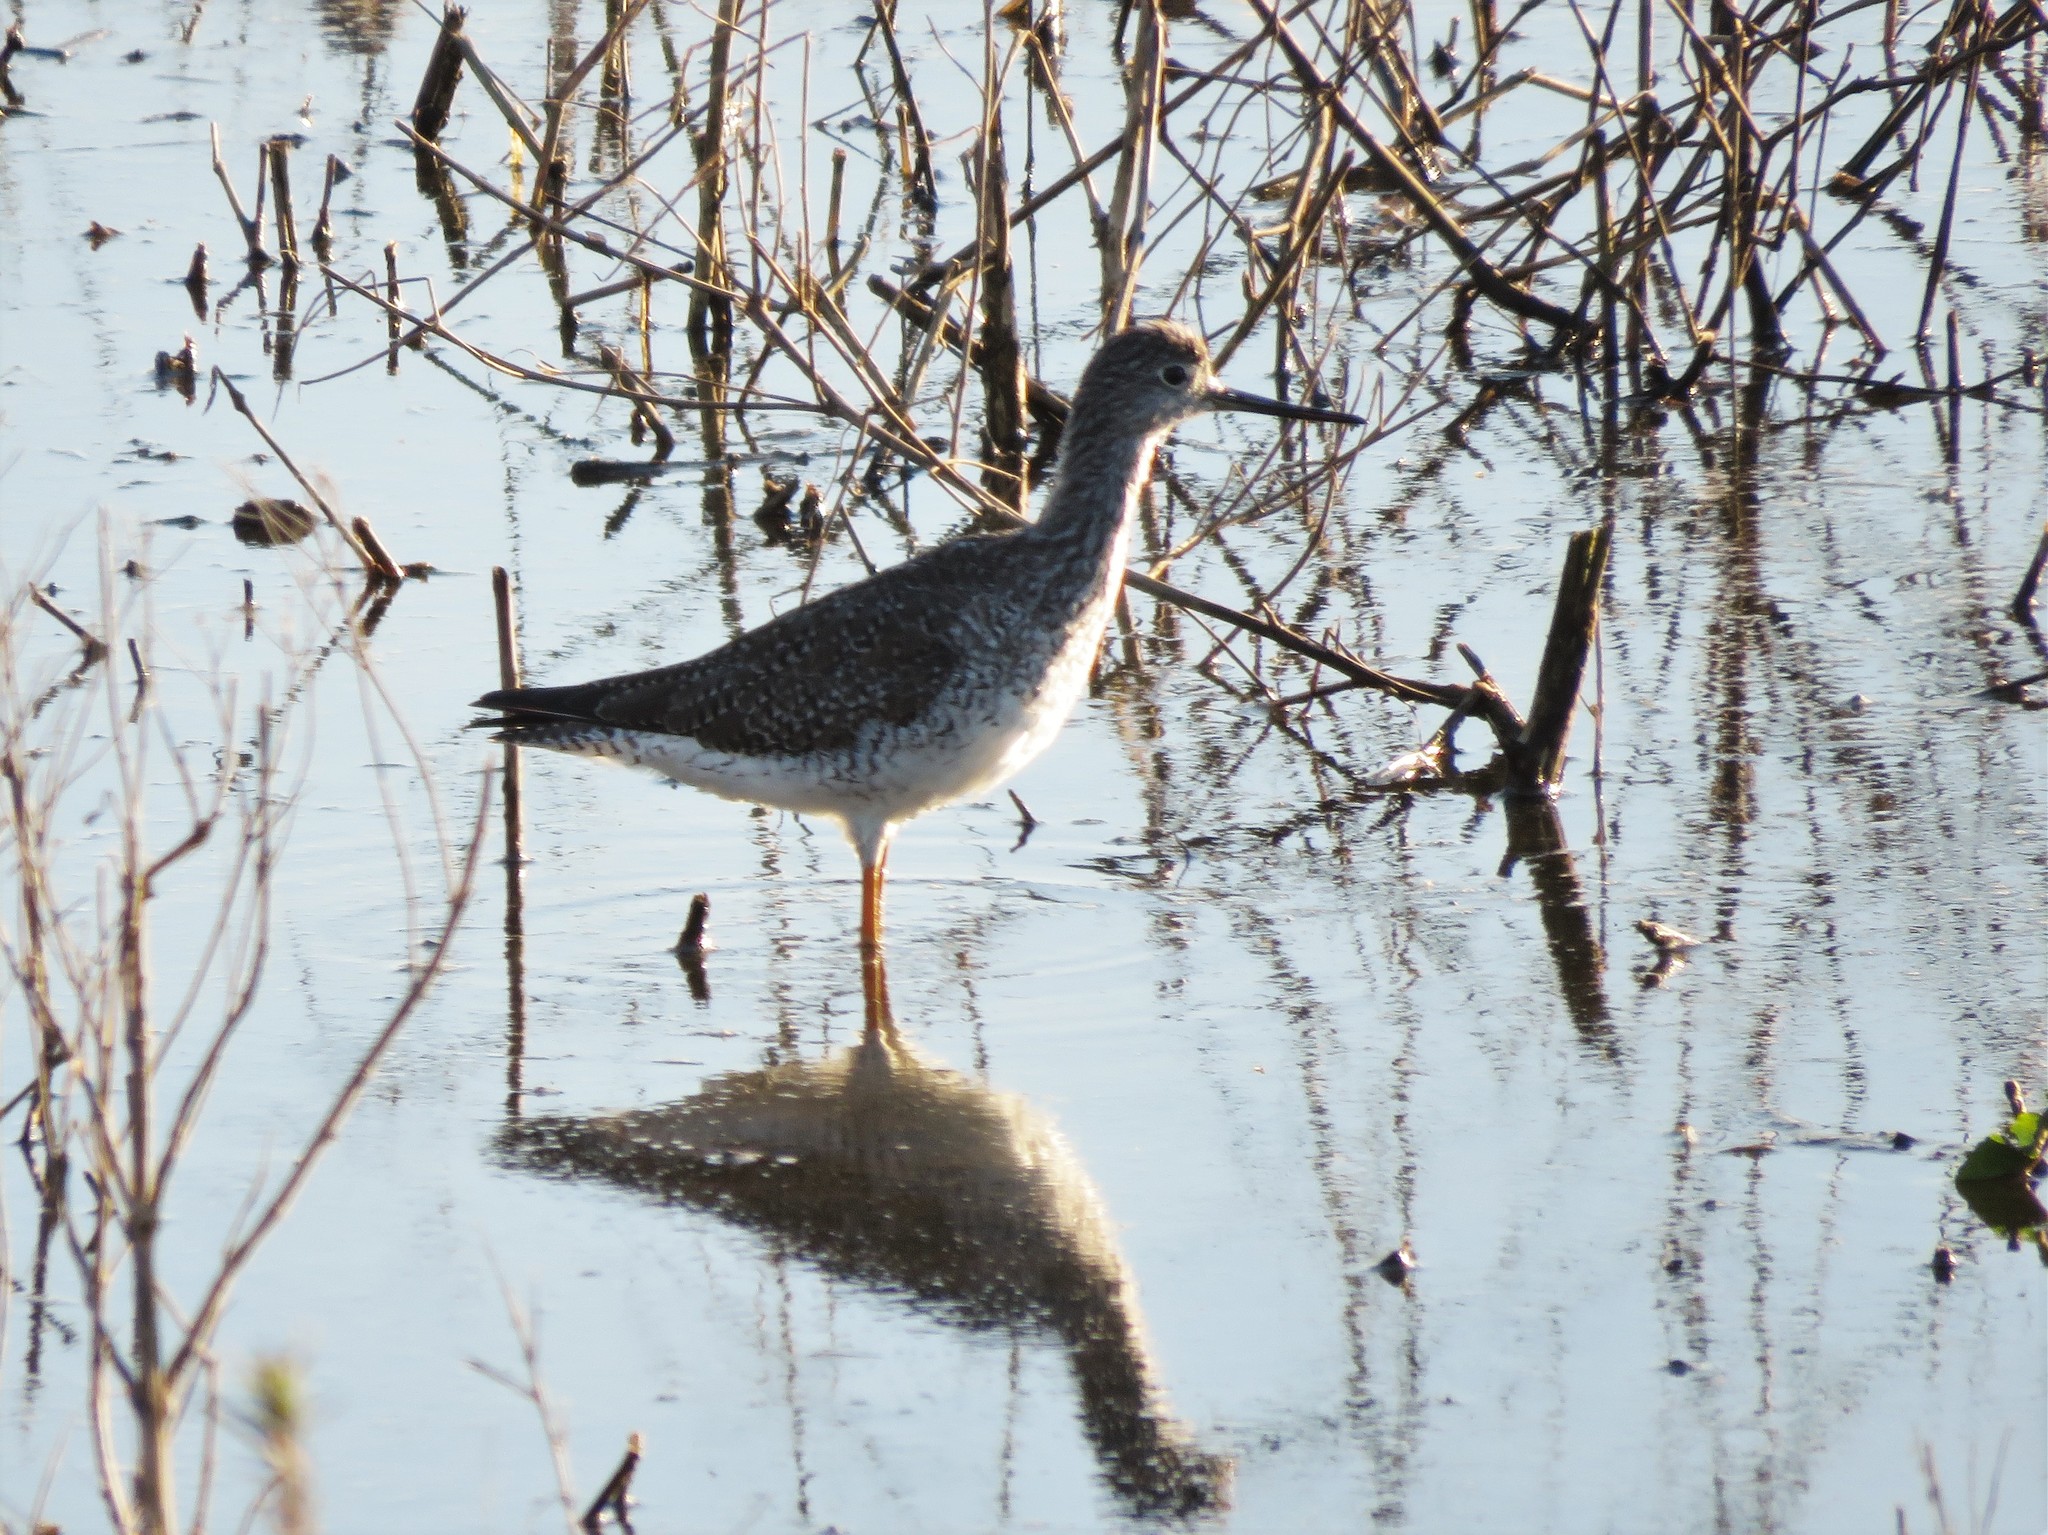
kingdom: Animalia
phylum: Chordata
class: Aves
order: Charadriiformes
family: Scolopacidae
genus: Tringa
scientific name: Tringa melanoleuca
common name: Greater yellowlegs
